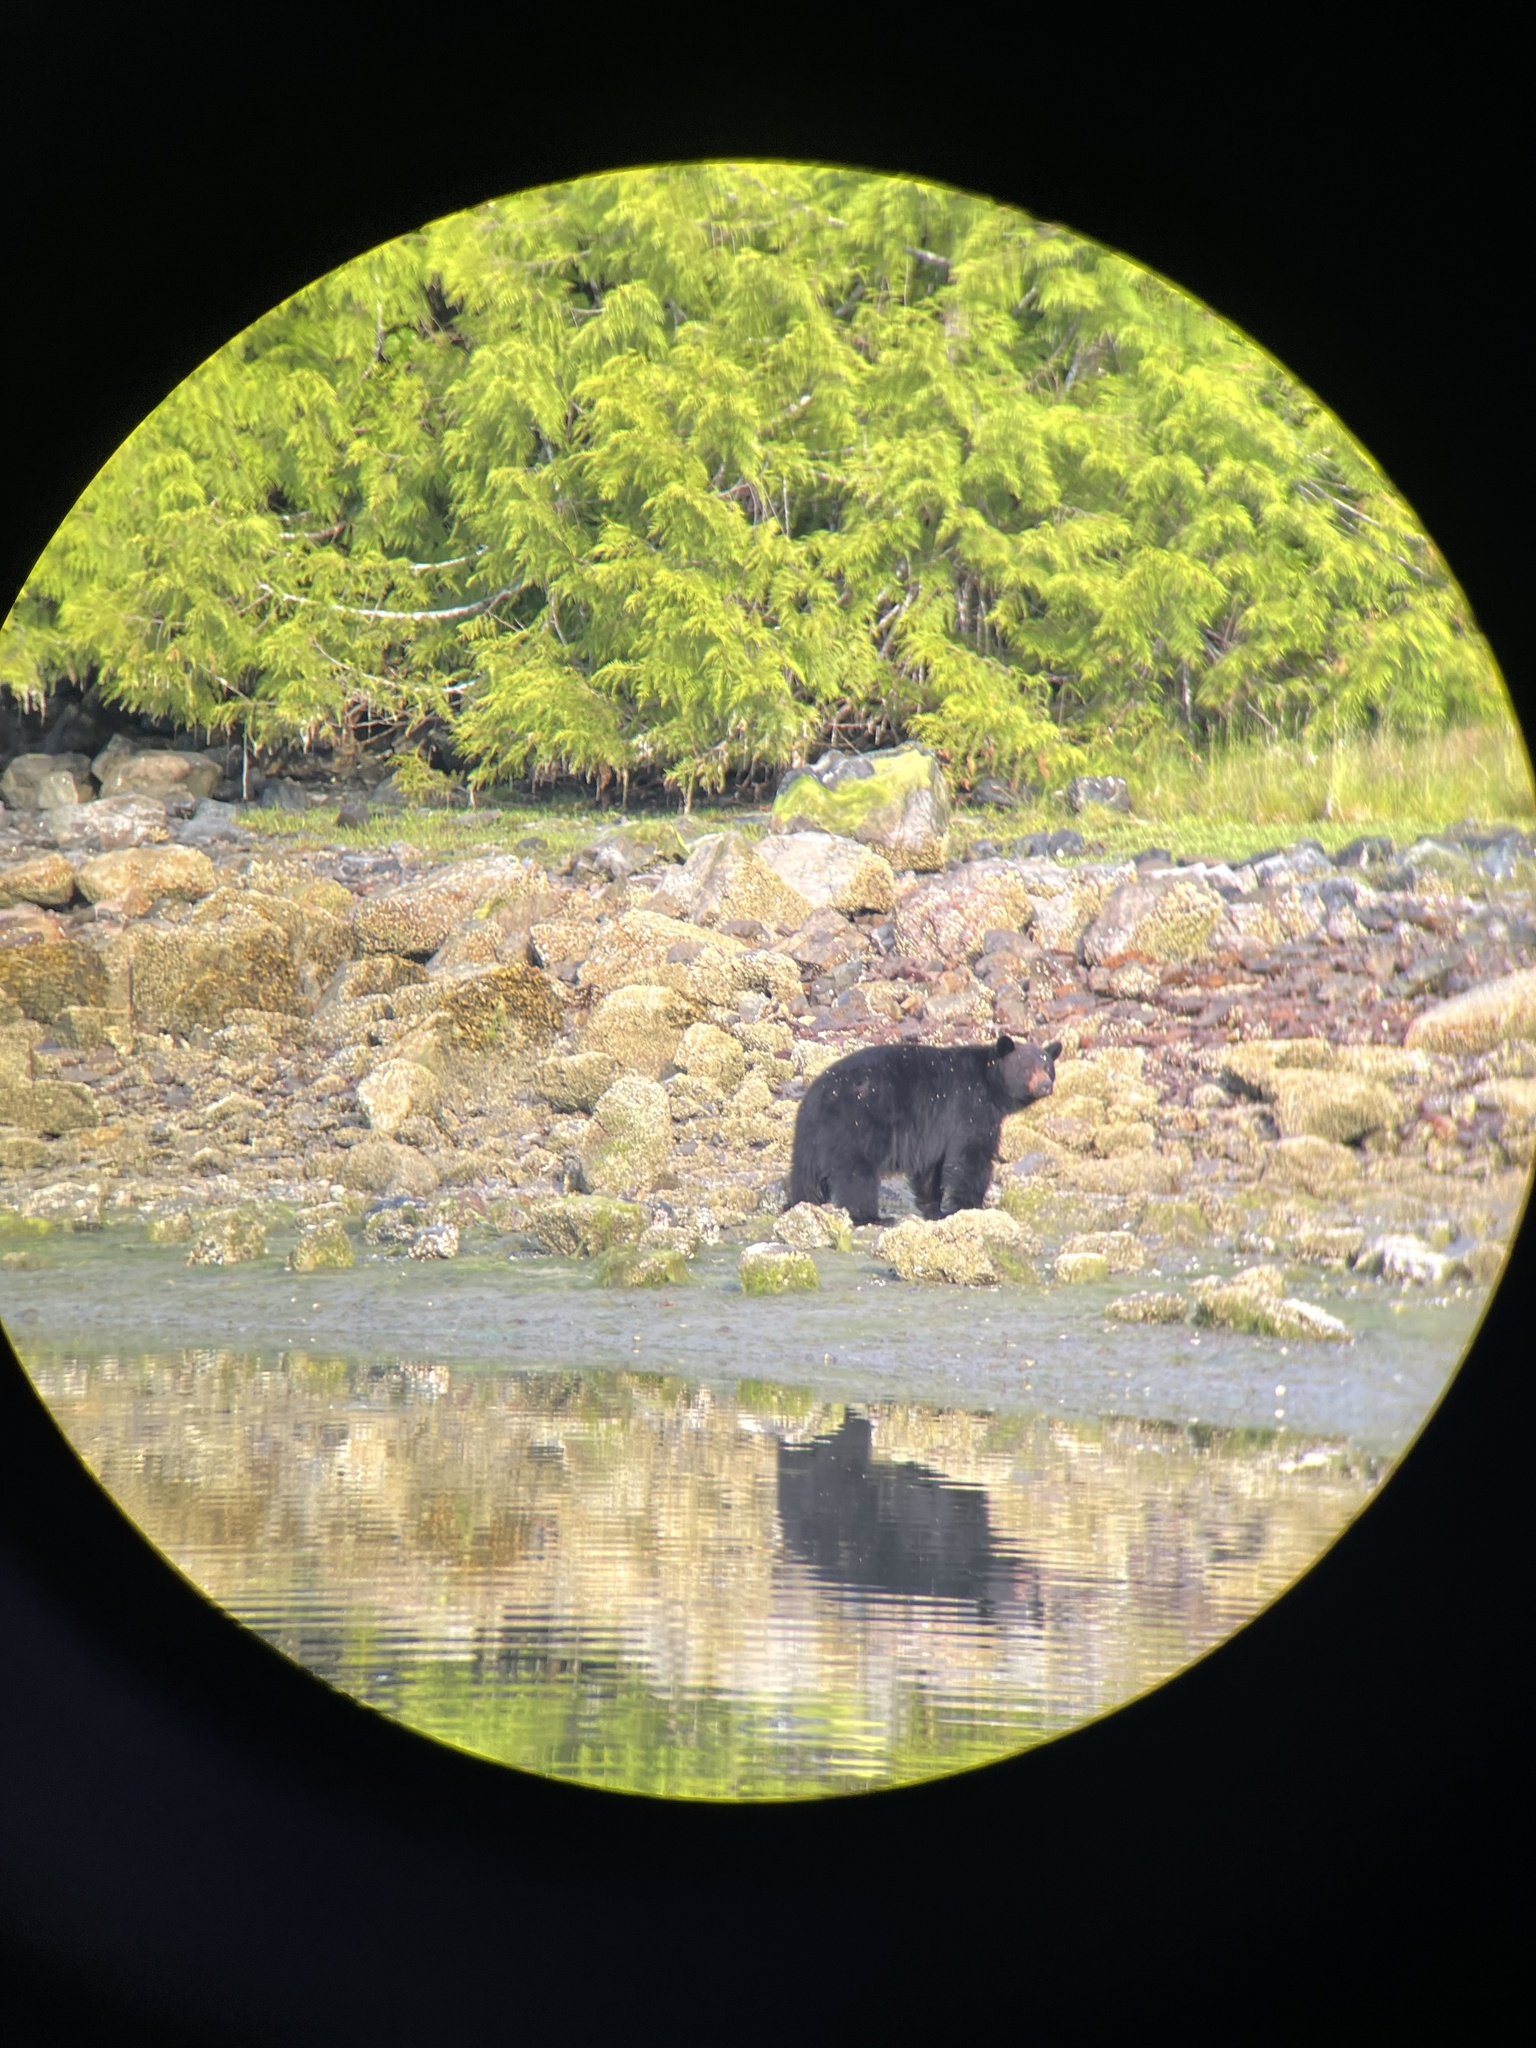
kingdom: Animalia
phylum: Chordata
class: Mammalia
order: Carnivora
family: Ursidae
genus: Ursus
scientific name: Ursus americanus
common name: American black bear
